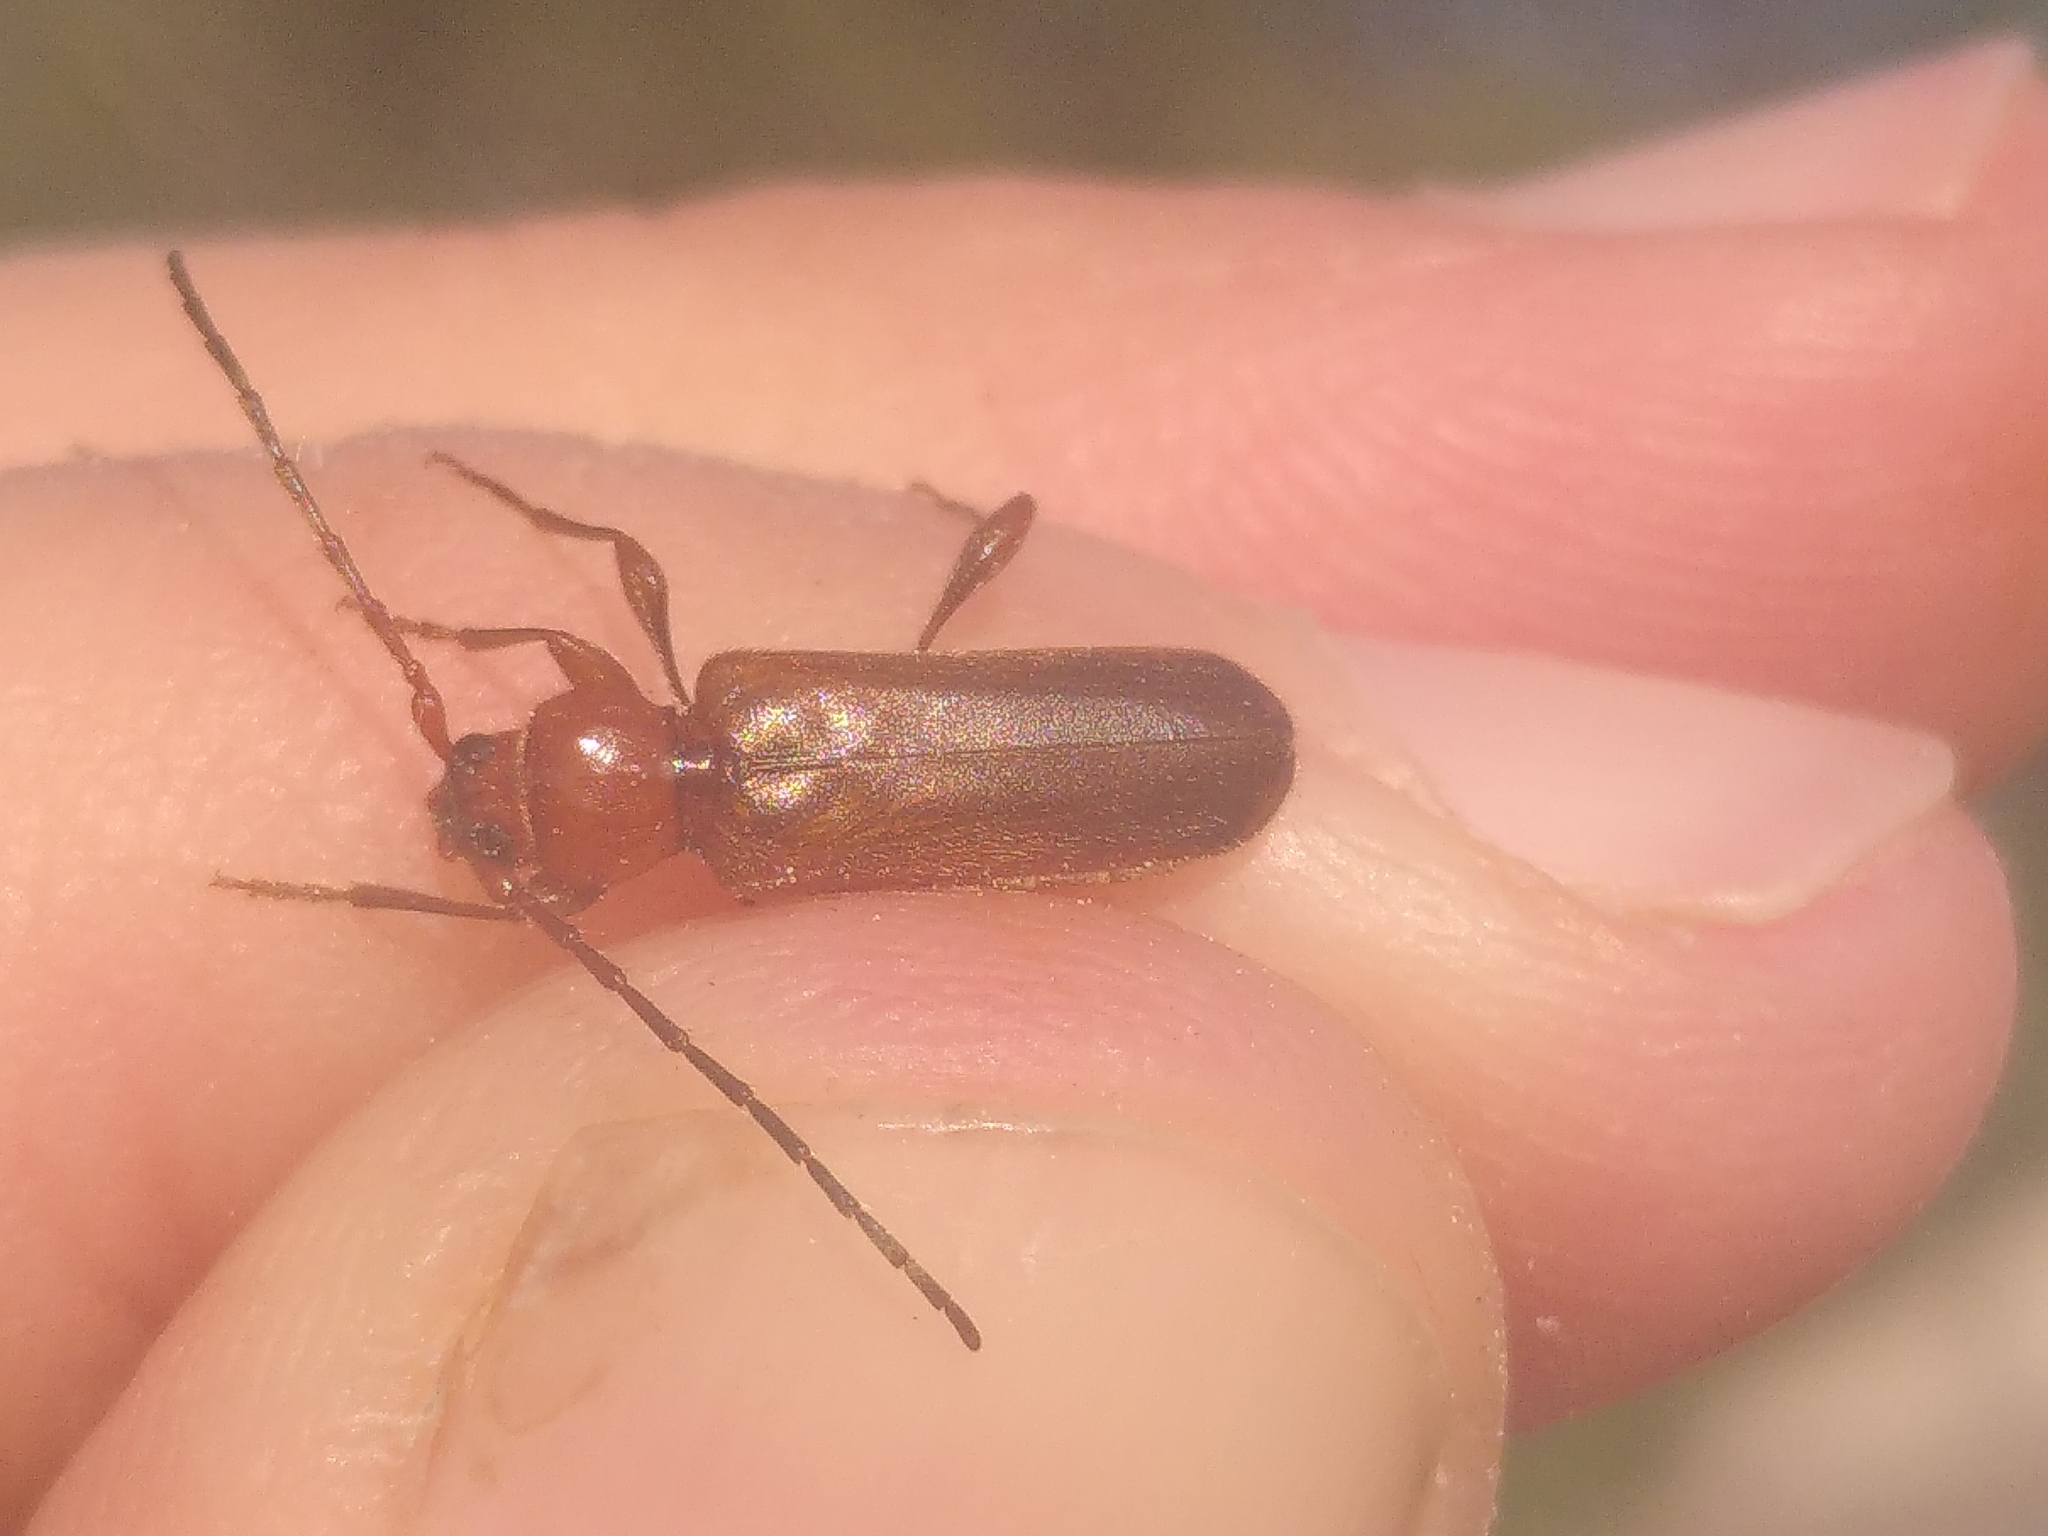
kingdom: Animalia
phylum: Arthropoda
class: Insecta
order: Coleoptera
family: Cerambycidae
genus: Phymatodes
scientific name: Phymatodes testaceus
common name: Long-horned beetle
